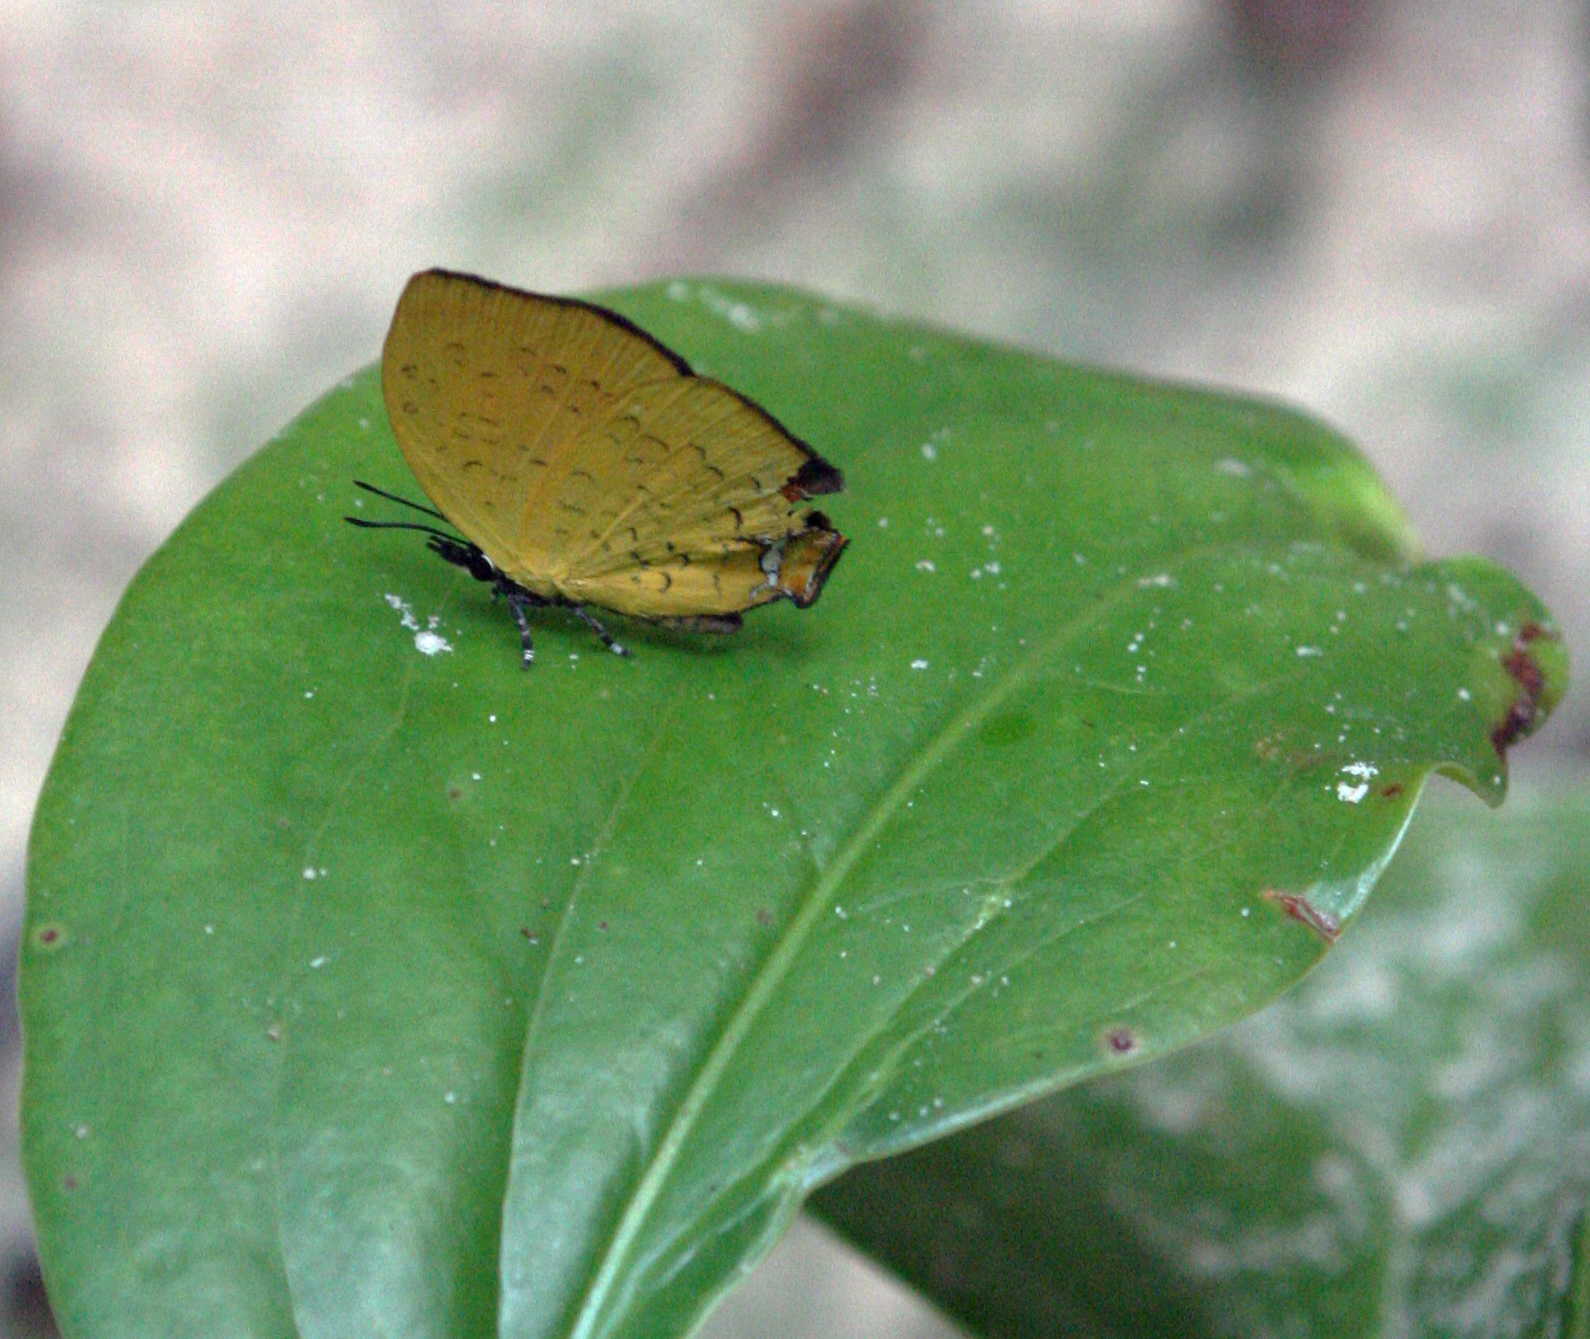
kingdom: Animalia
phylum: Arthropoda
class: Insecta
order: Lepidoptera
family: Lycaenidae
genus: Yasoda
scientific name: Yasoda tripunctata
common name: Branded yamfly
